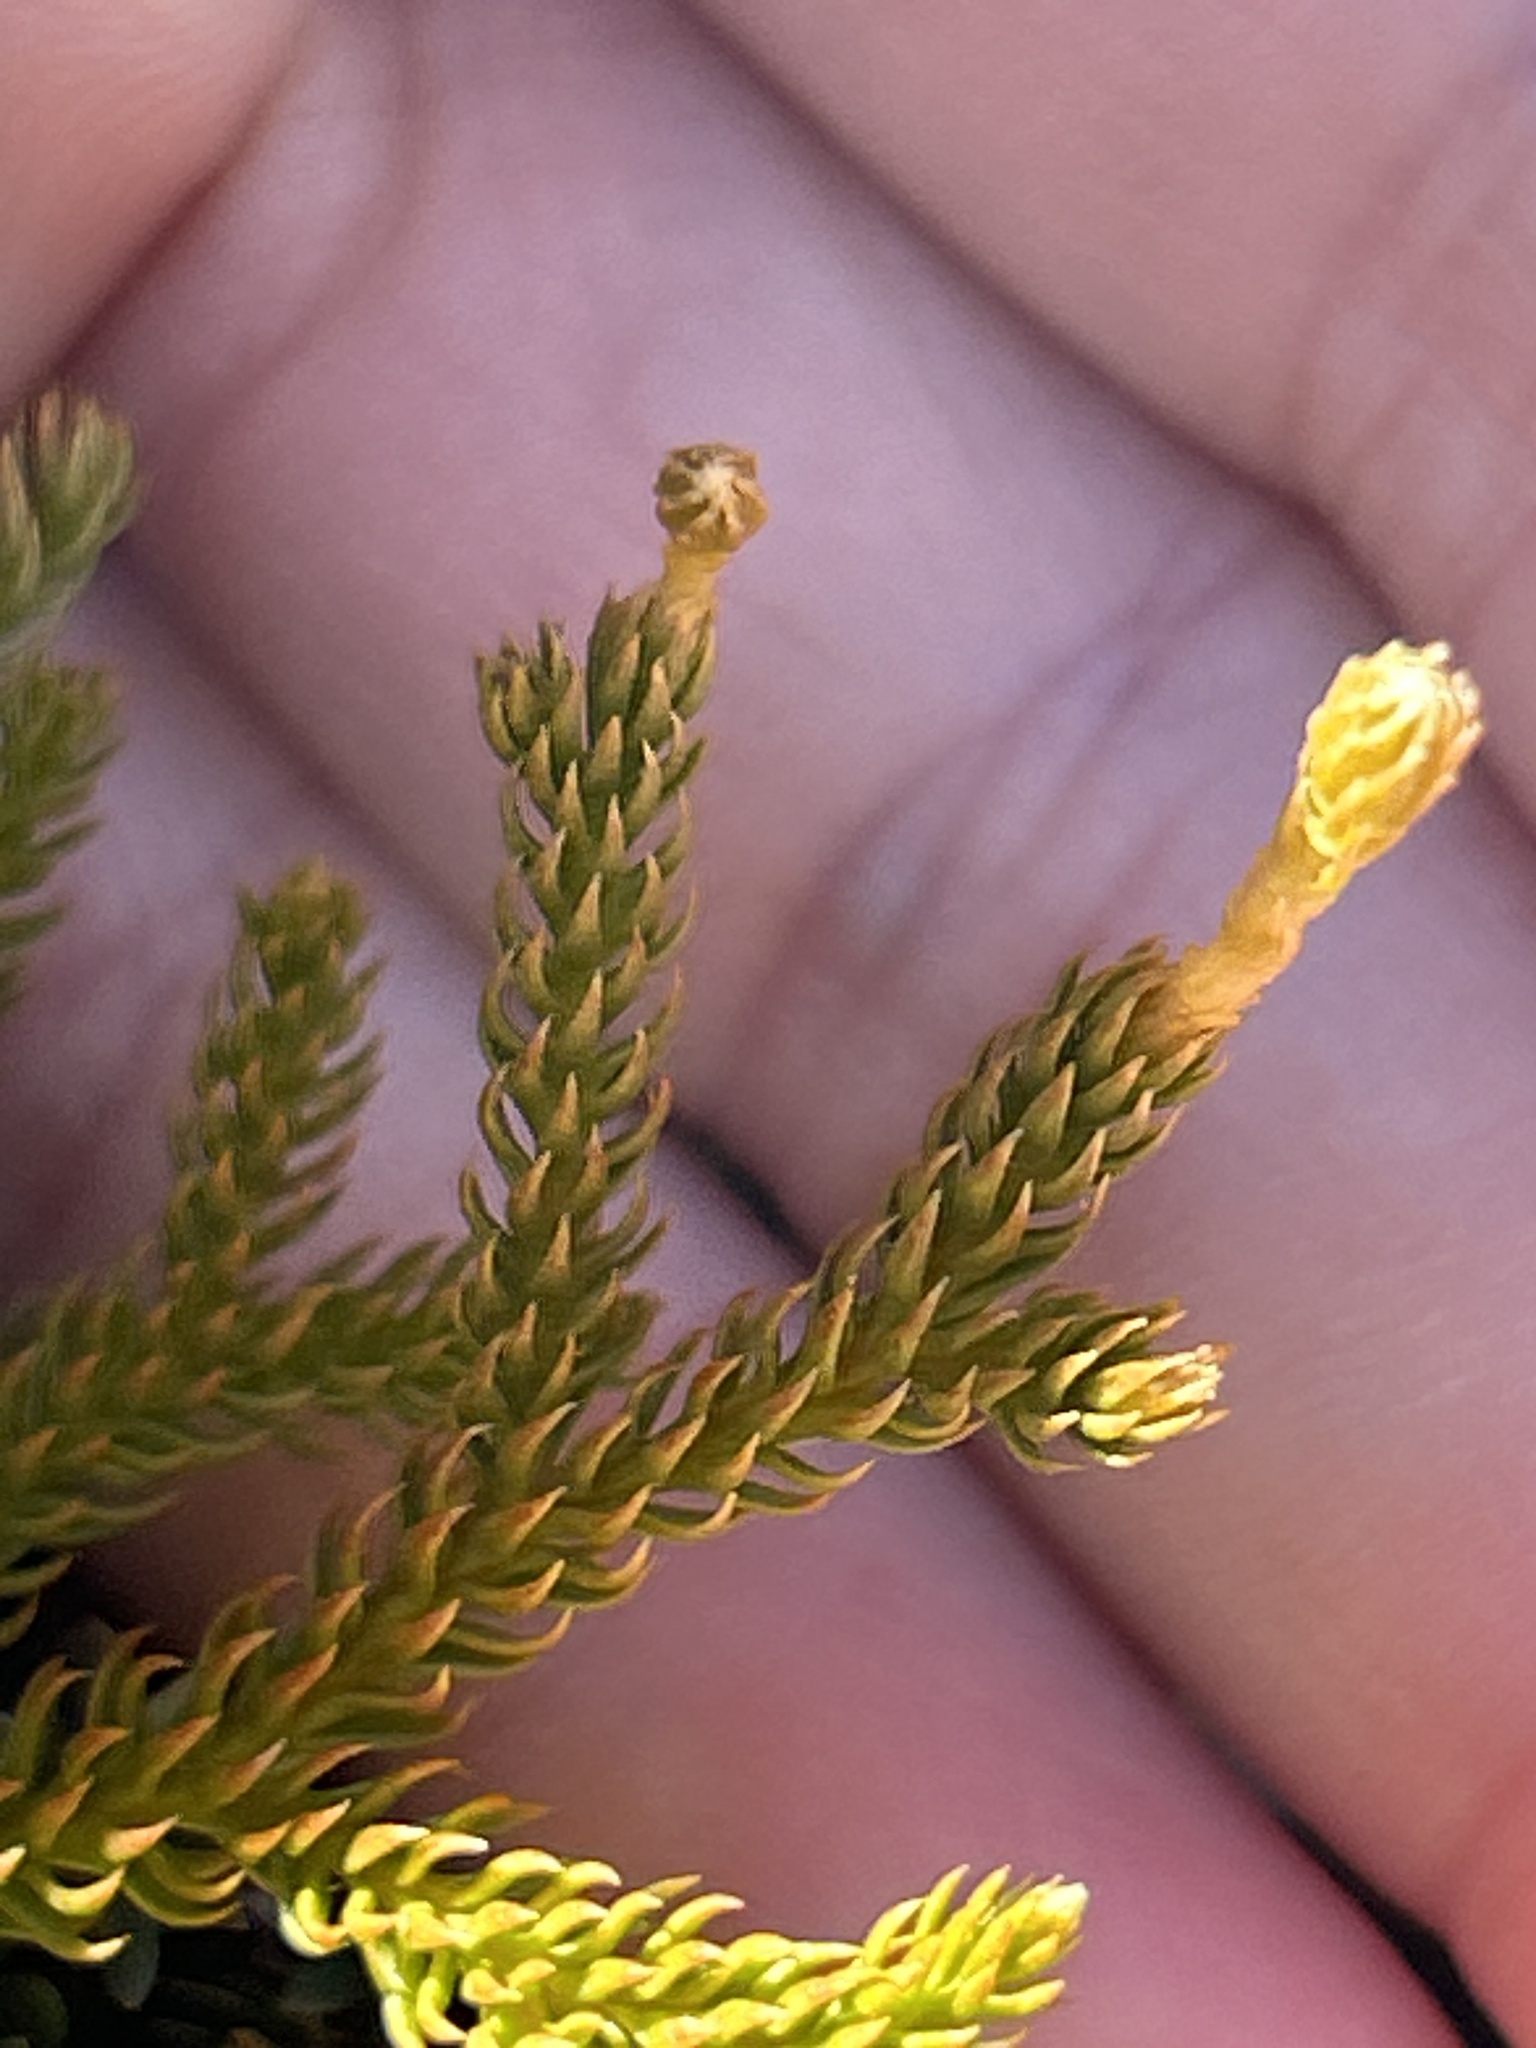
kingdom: Plantae
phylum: Tracheophyta
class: Lycopodiopsida
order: Lycopodiales
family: Lycopodiaceae
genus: Austrolycopodium
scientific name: Austrolycopodium fastigiatum
